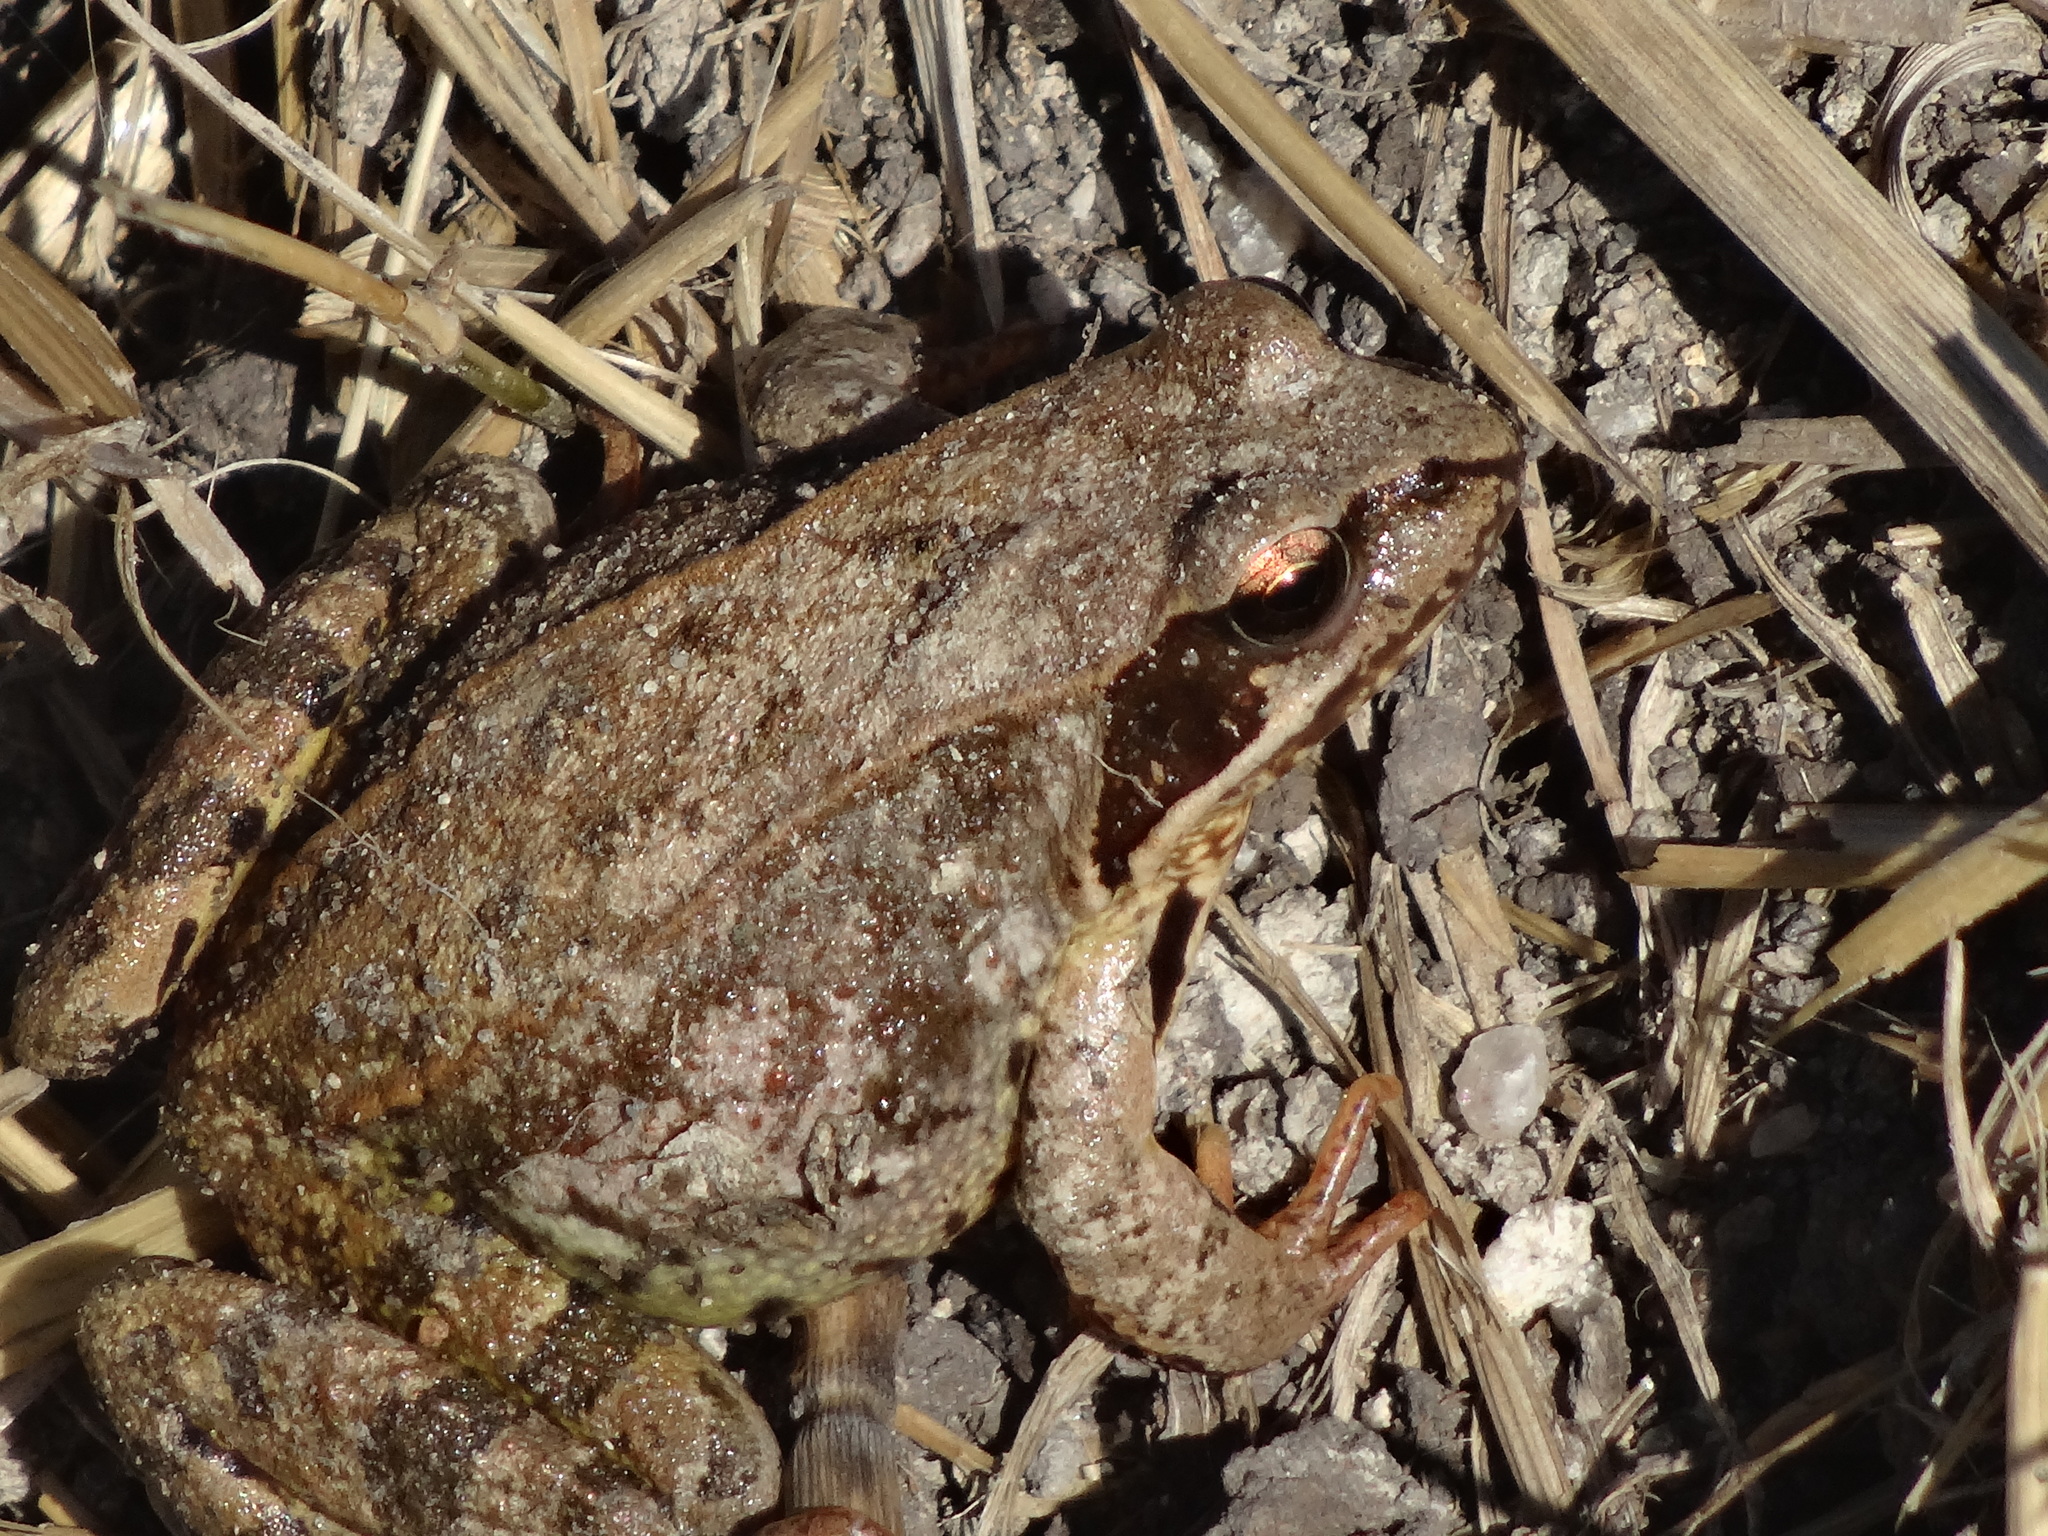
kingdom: Animalia
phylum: Chordata
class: Amphibia
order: Anura
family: Ranidae
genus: Rana
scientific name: Rana temporaria
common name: Common frog
